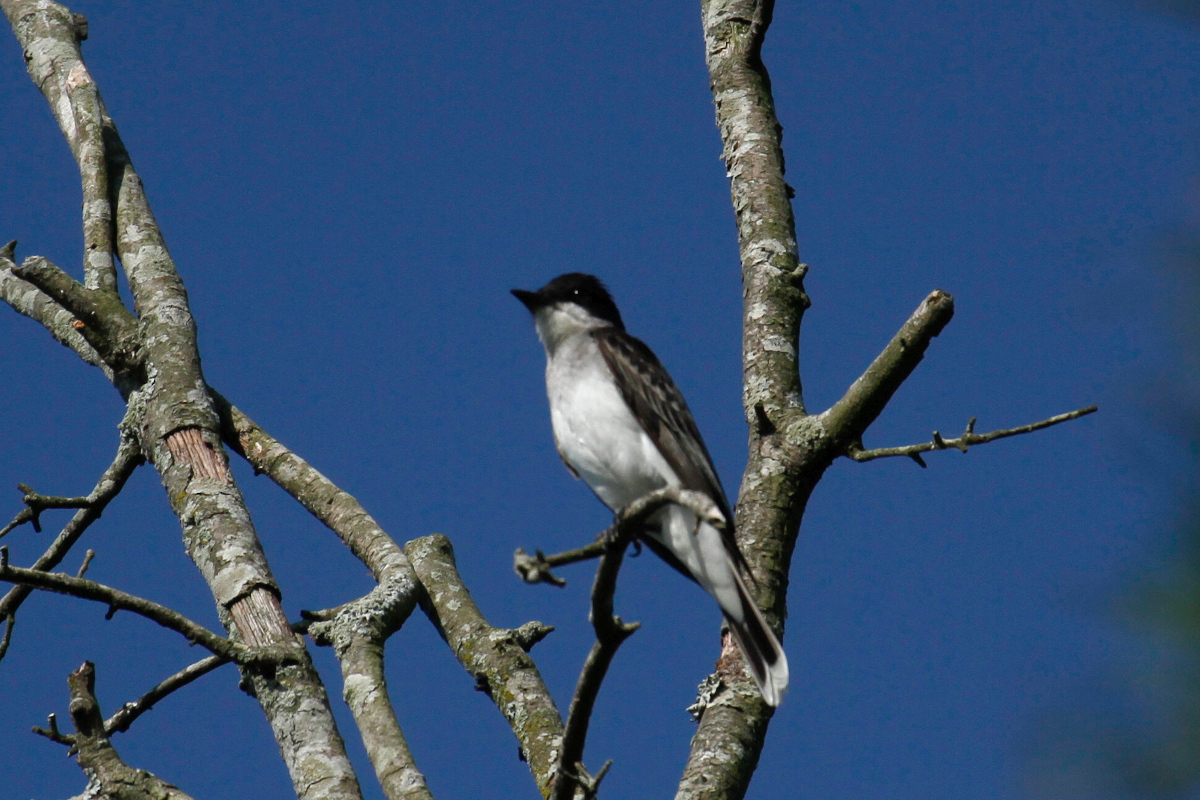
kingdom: Animalia
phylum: Chordata
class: Aves
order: Passeriformes
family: Tyrannidae
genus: Tyrannus
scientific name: Tyrannus tyrannus
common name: Eastern kingbird
